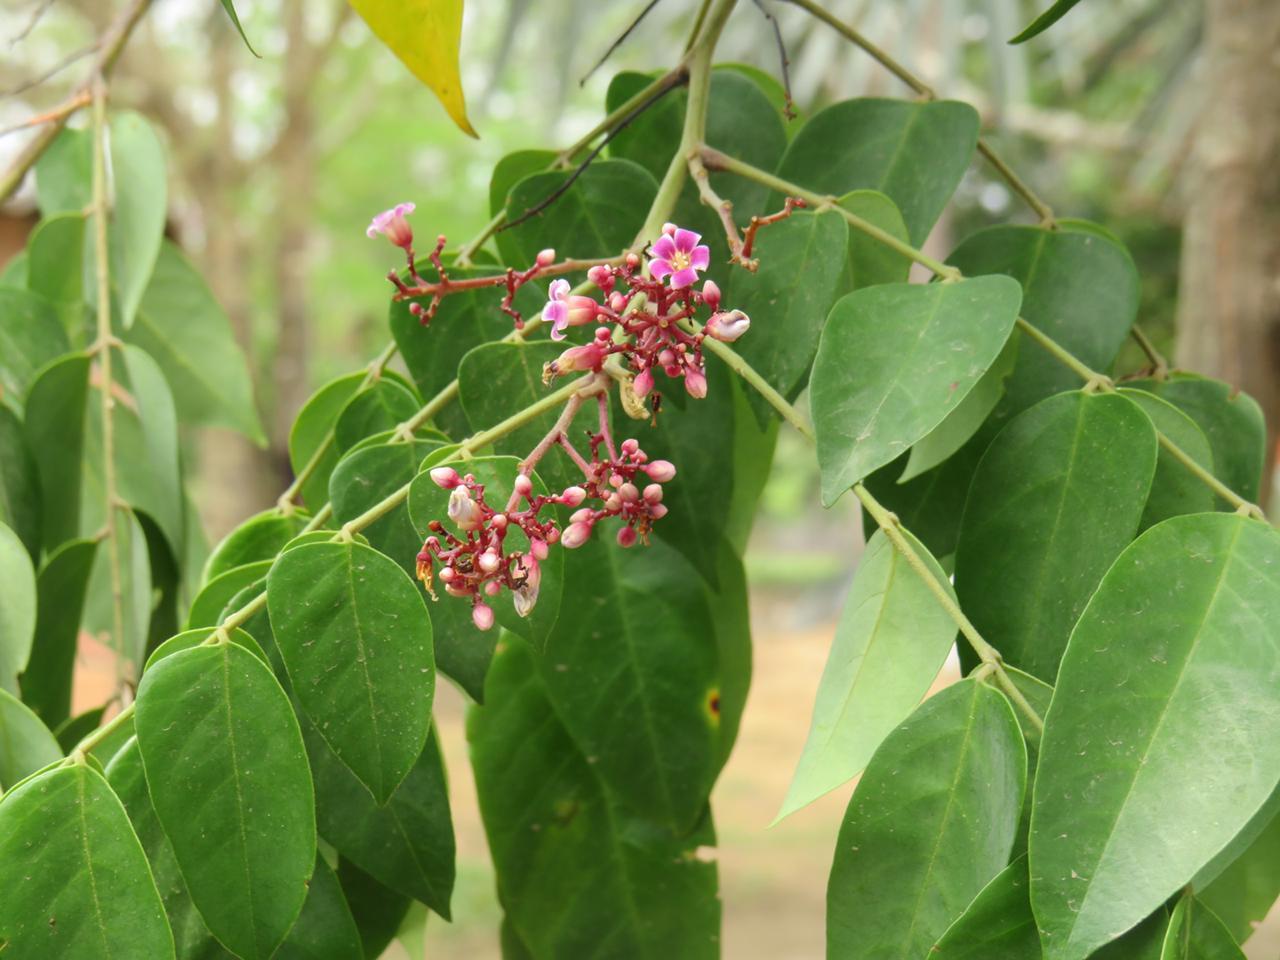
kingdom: Plantae
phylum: Tracheophyta
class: Magnoliopsida
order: Oxalidales
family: Oxalidaceae
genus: Averrhoa
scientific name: Averrhoa carambola
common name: Blimbing
